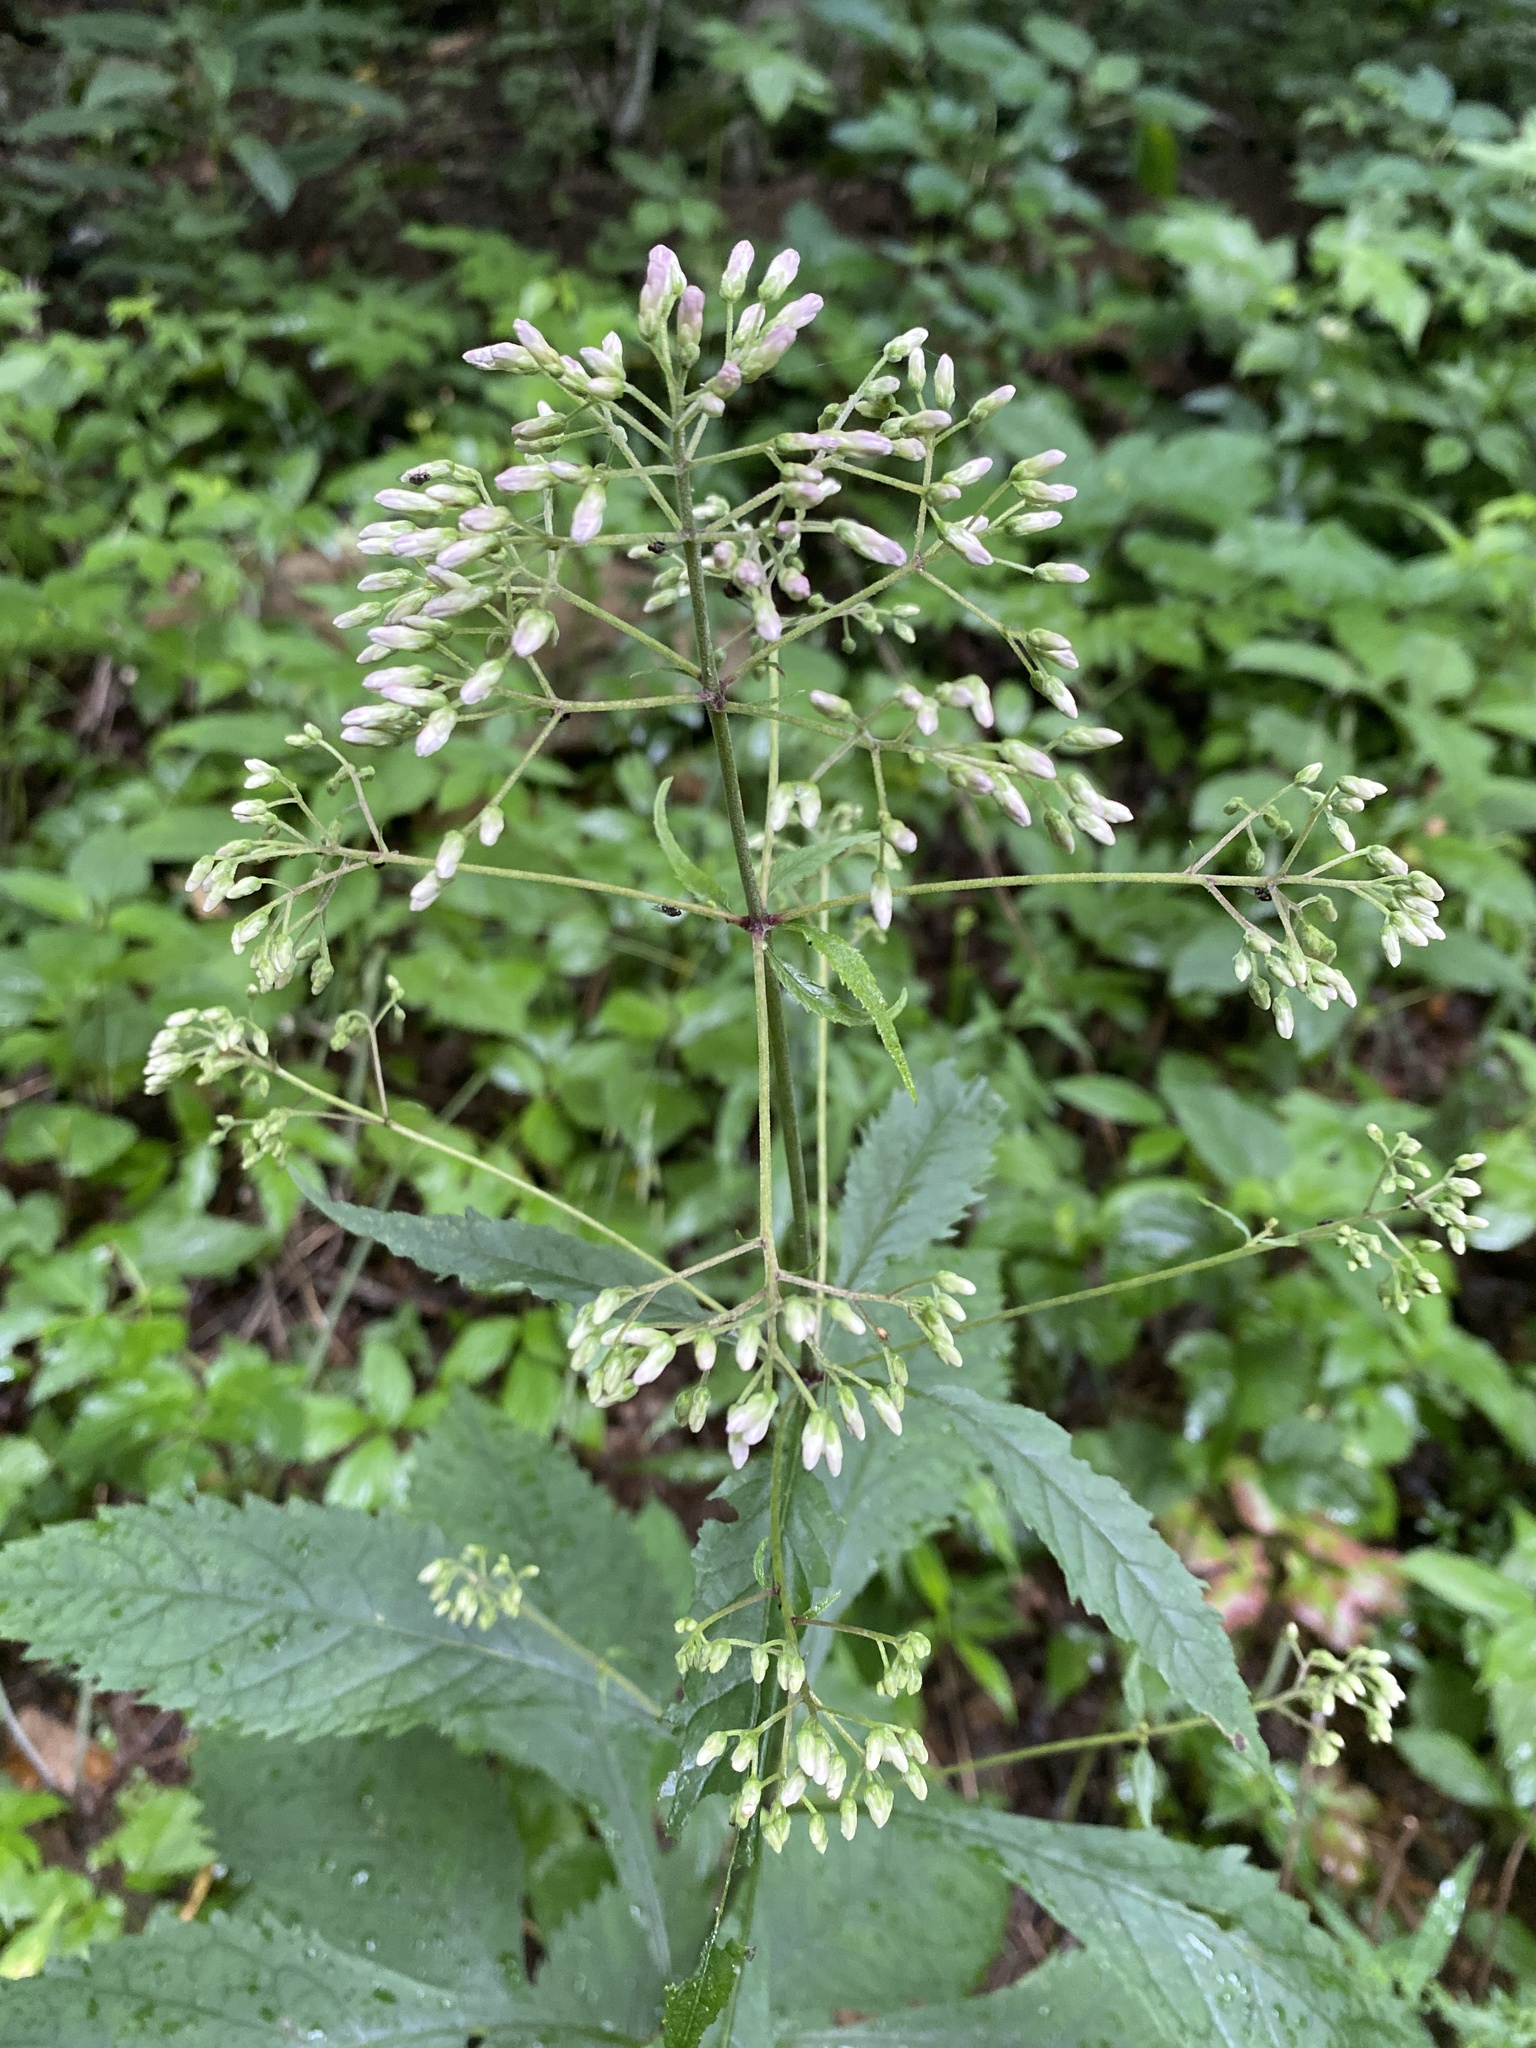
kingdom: Plantae
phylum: Tracheophyta
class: Magnoliopsida
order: Asterales
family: Asteraceae
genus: Eutrochium
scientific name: Eutrochium purpureum
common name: Gravelroot
